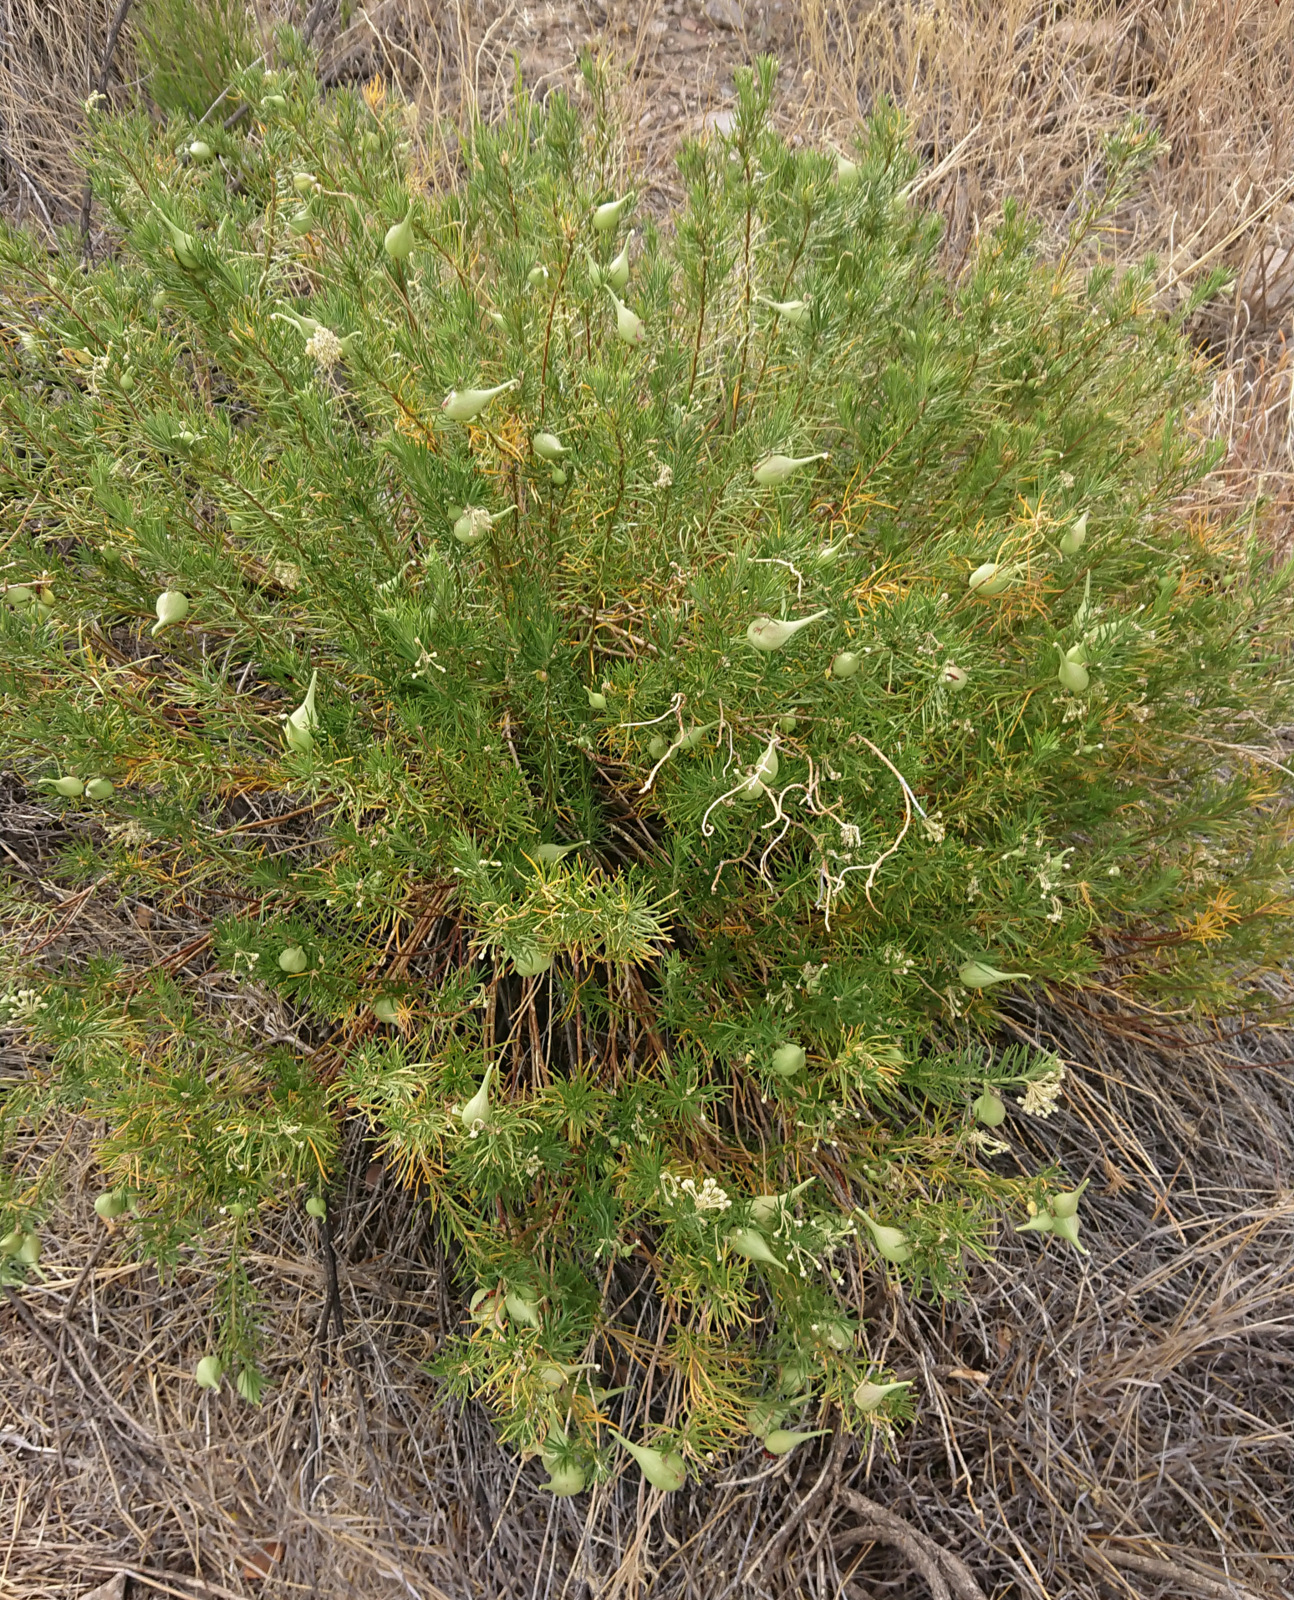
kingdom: Plantae
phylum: Tracheophyta
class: Magnoliopsida
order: Gentianales
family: Apocynaceae
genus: Asclepias
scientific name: Asclepias linaria
